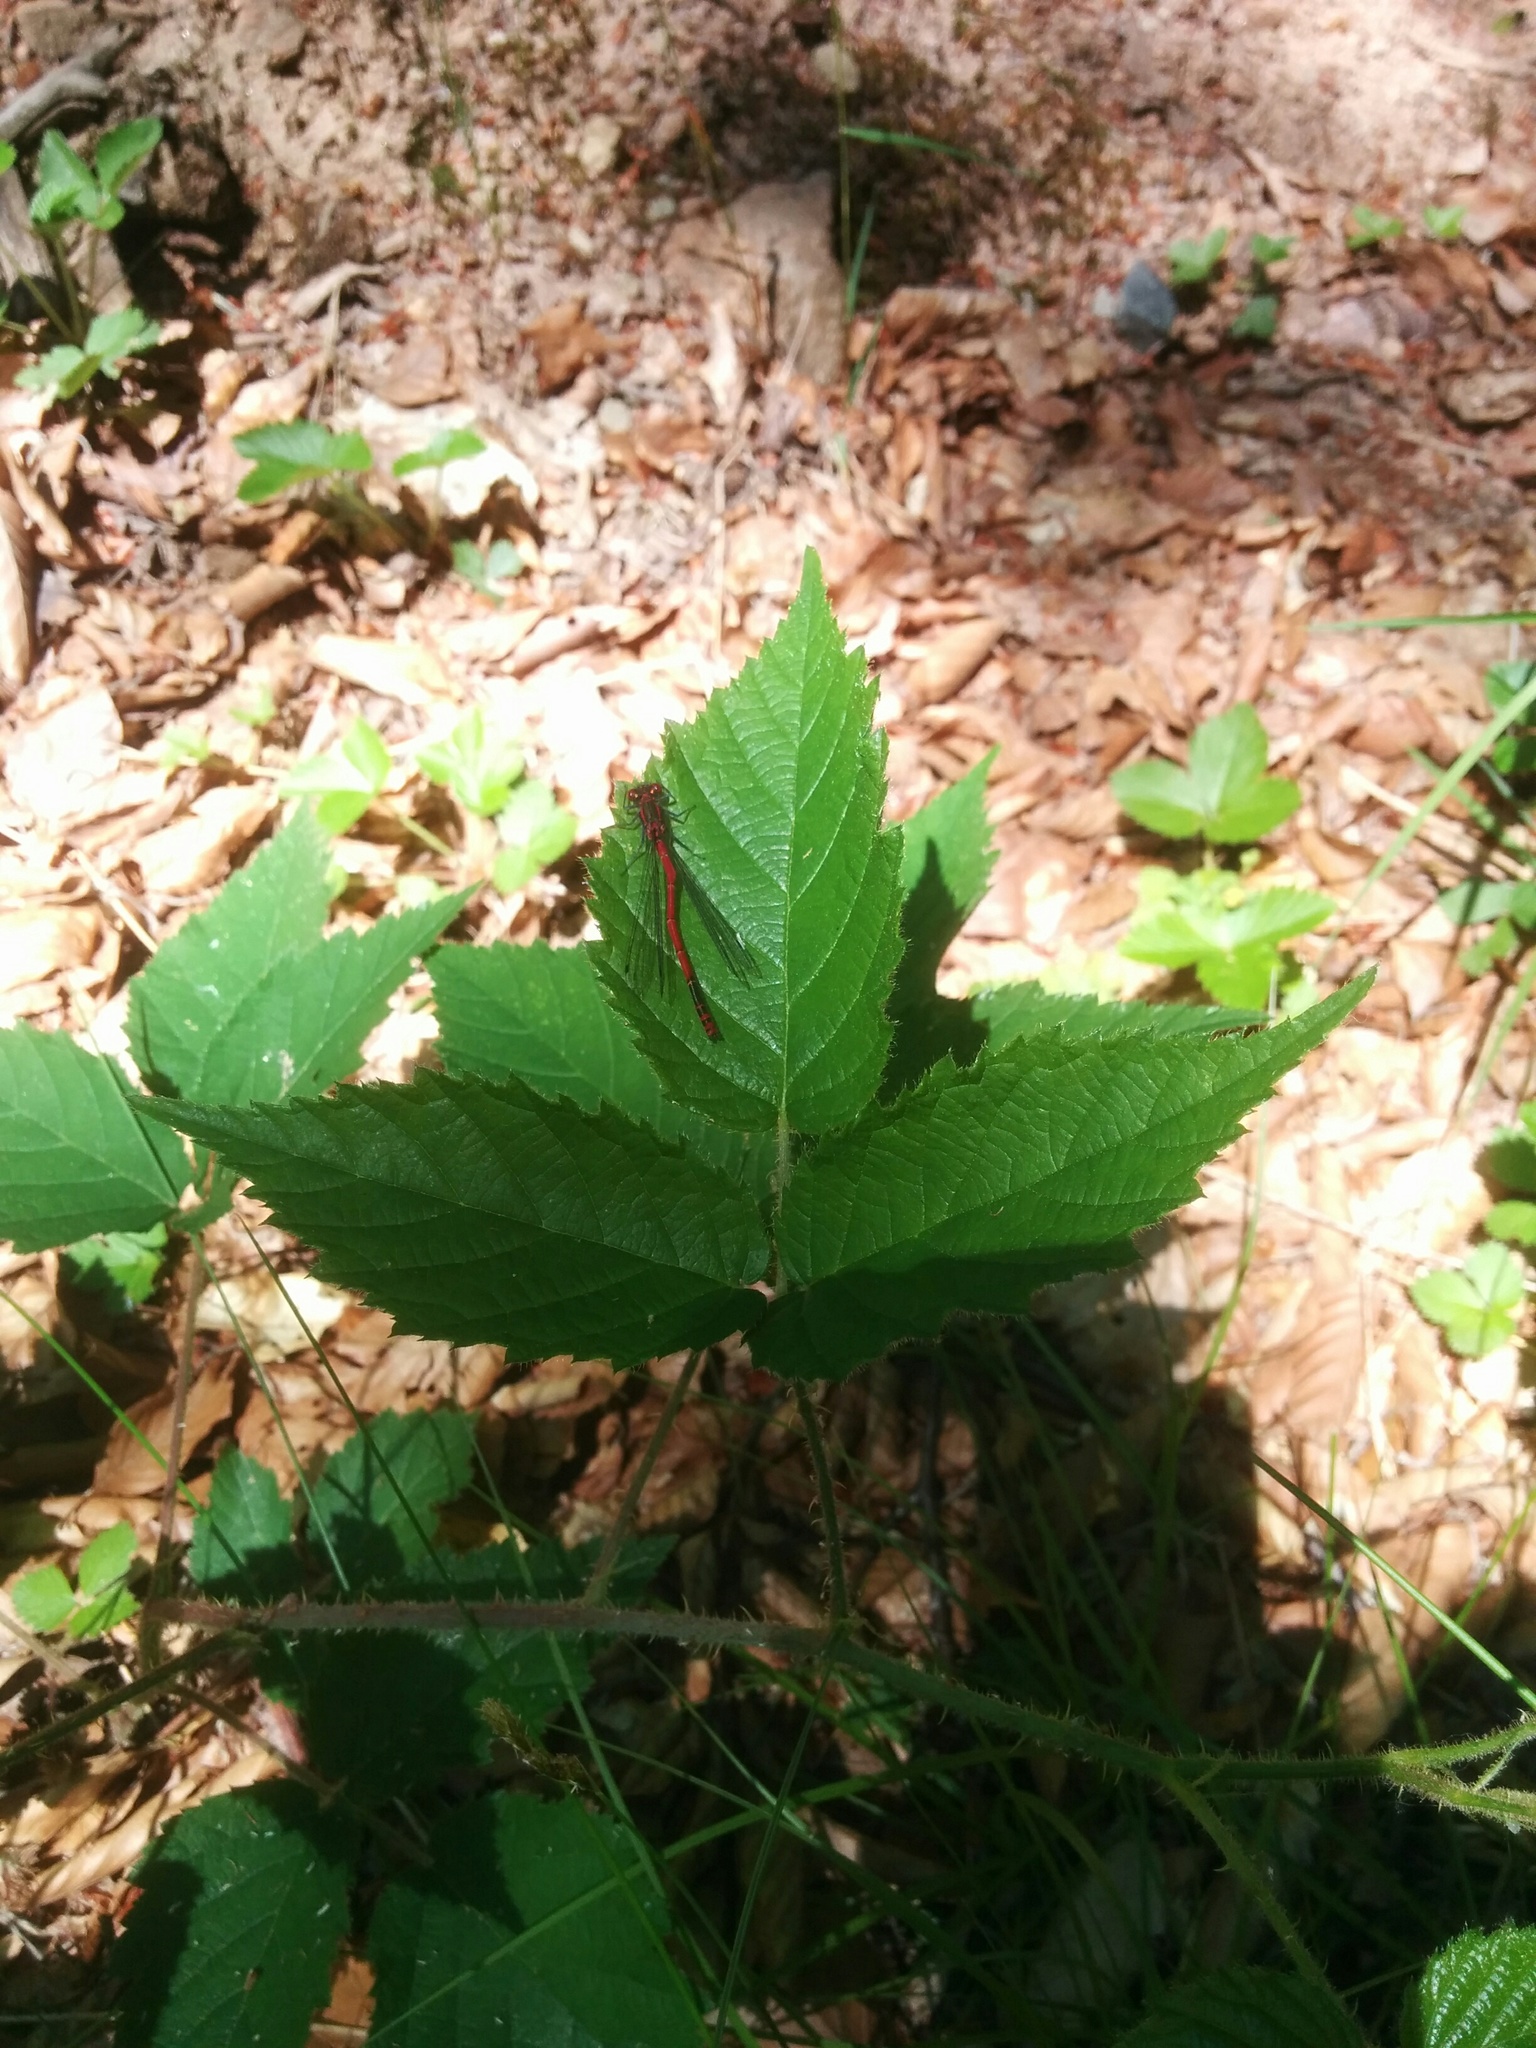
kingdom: Animalia
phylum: Arthropoda
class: Insecta
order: Odonata
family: Coenagrionidae
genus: Pyrrhosoma
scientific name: Pyrrhosoma nymphula
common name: Large red damsel
